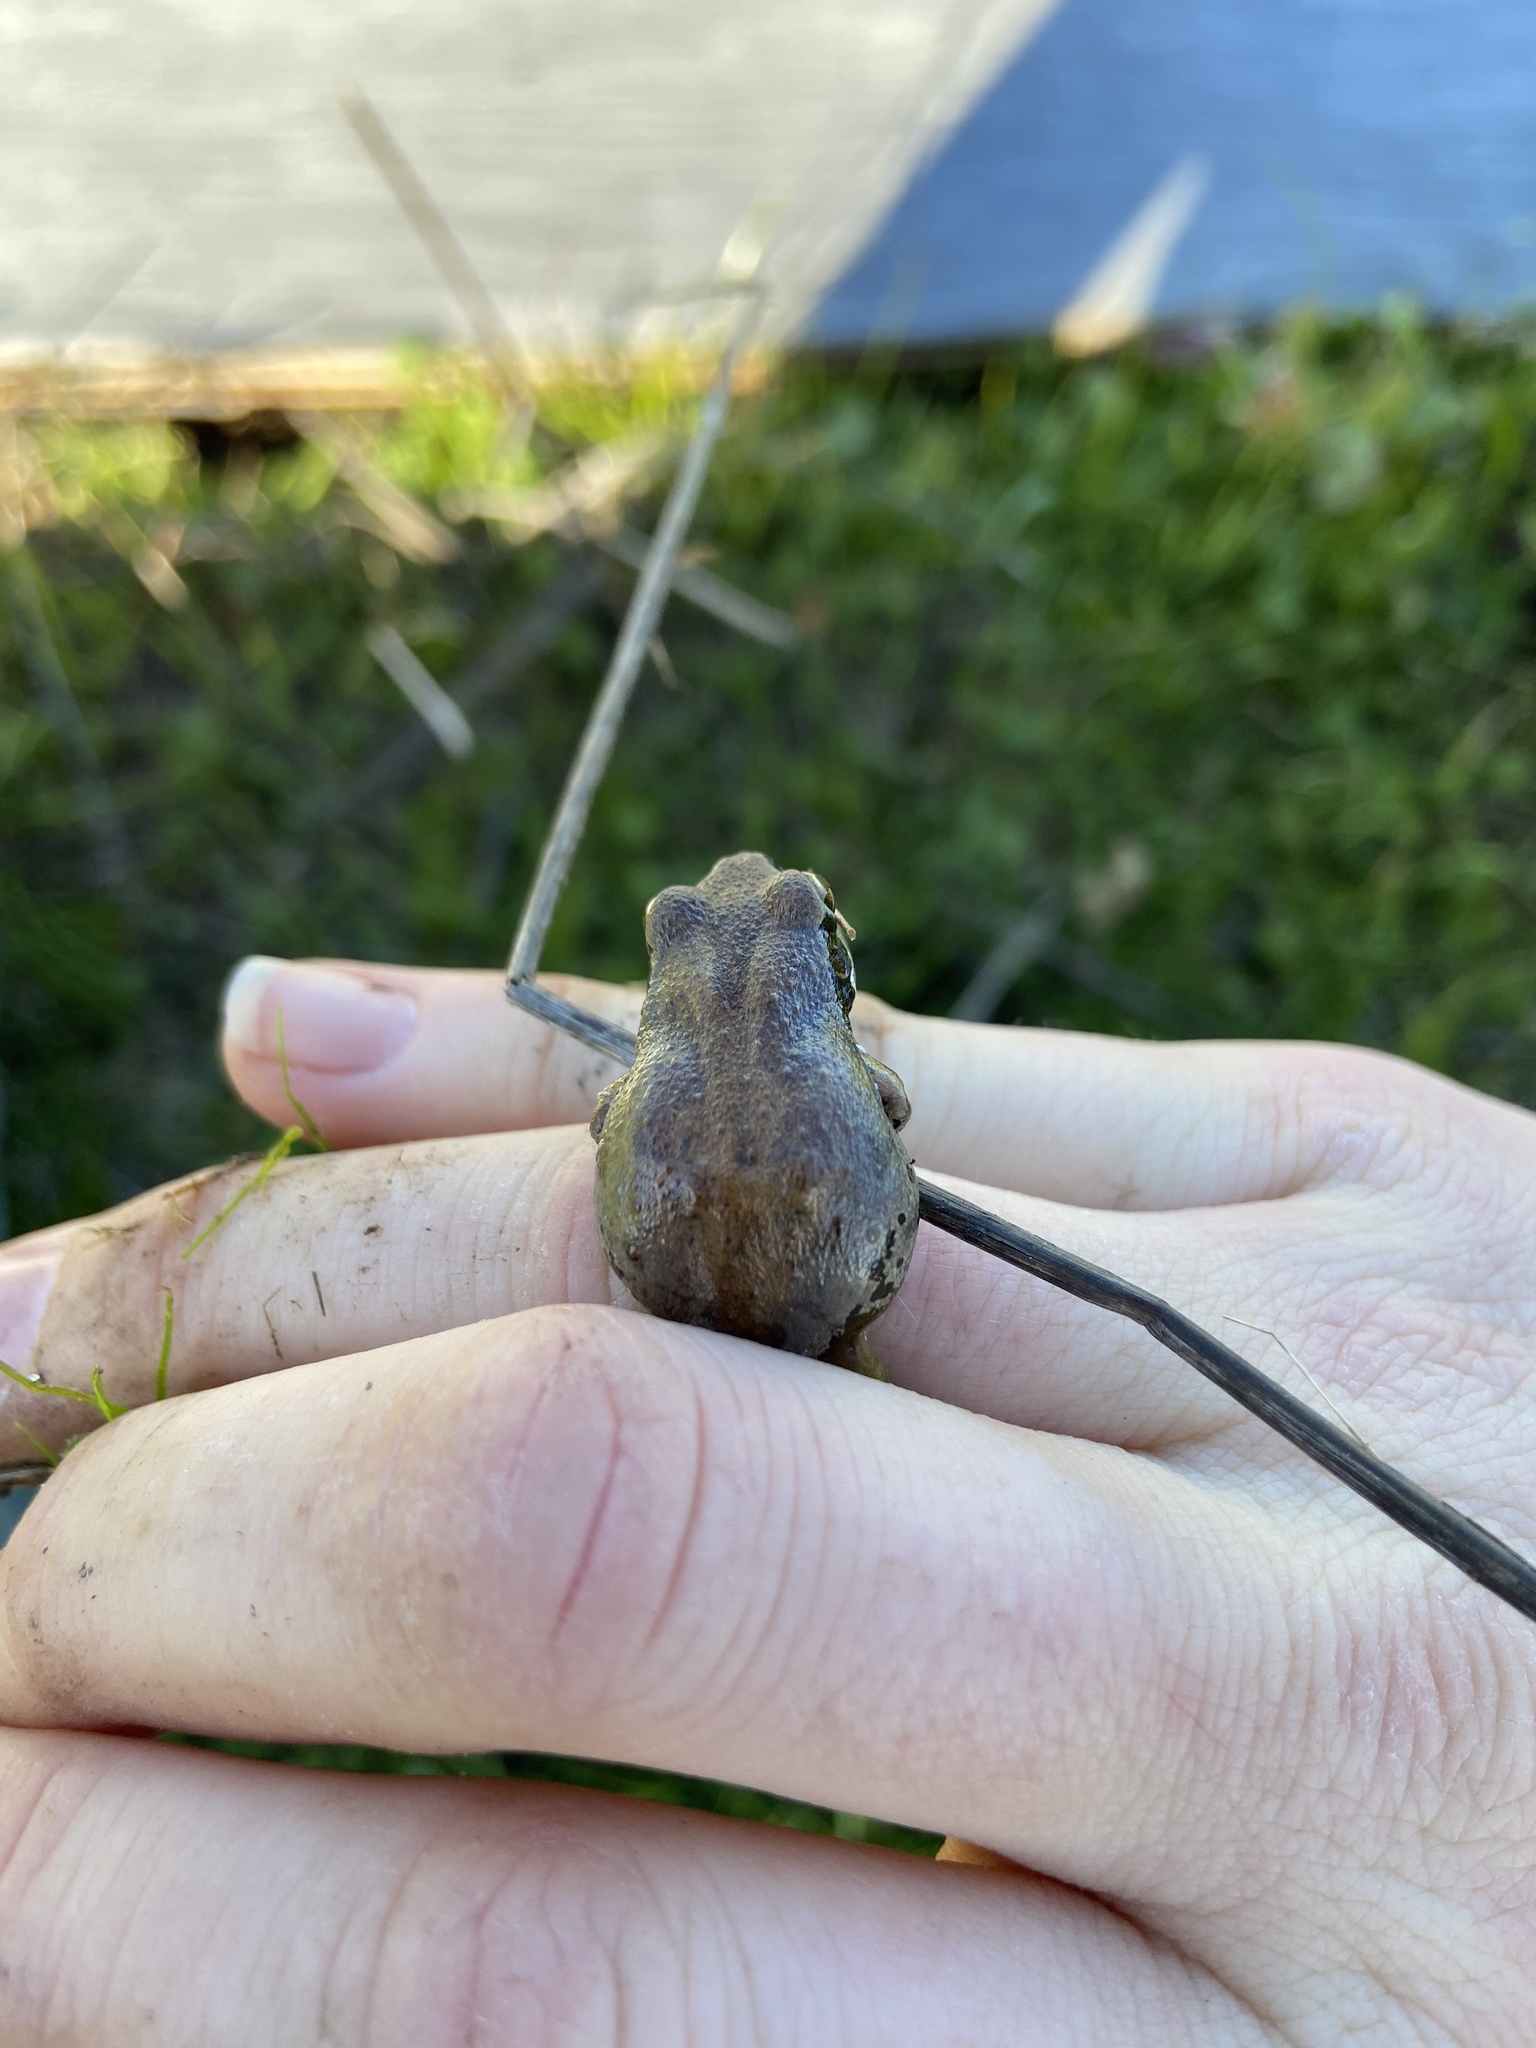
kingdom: Animalia
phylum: Chordata
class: Amphibia
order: Anura
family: Hylidae
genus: Pseudacris
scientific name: Pseudacris regilla
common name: Pacific chorus frog
